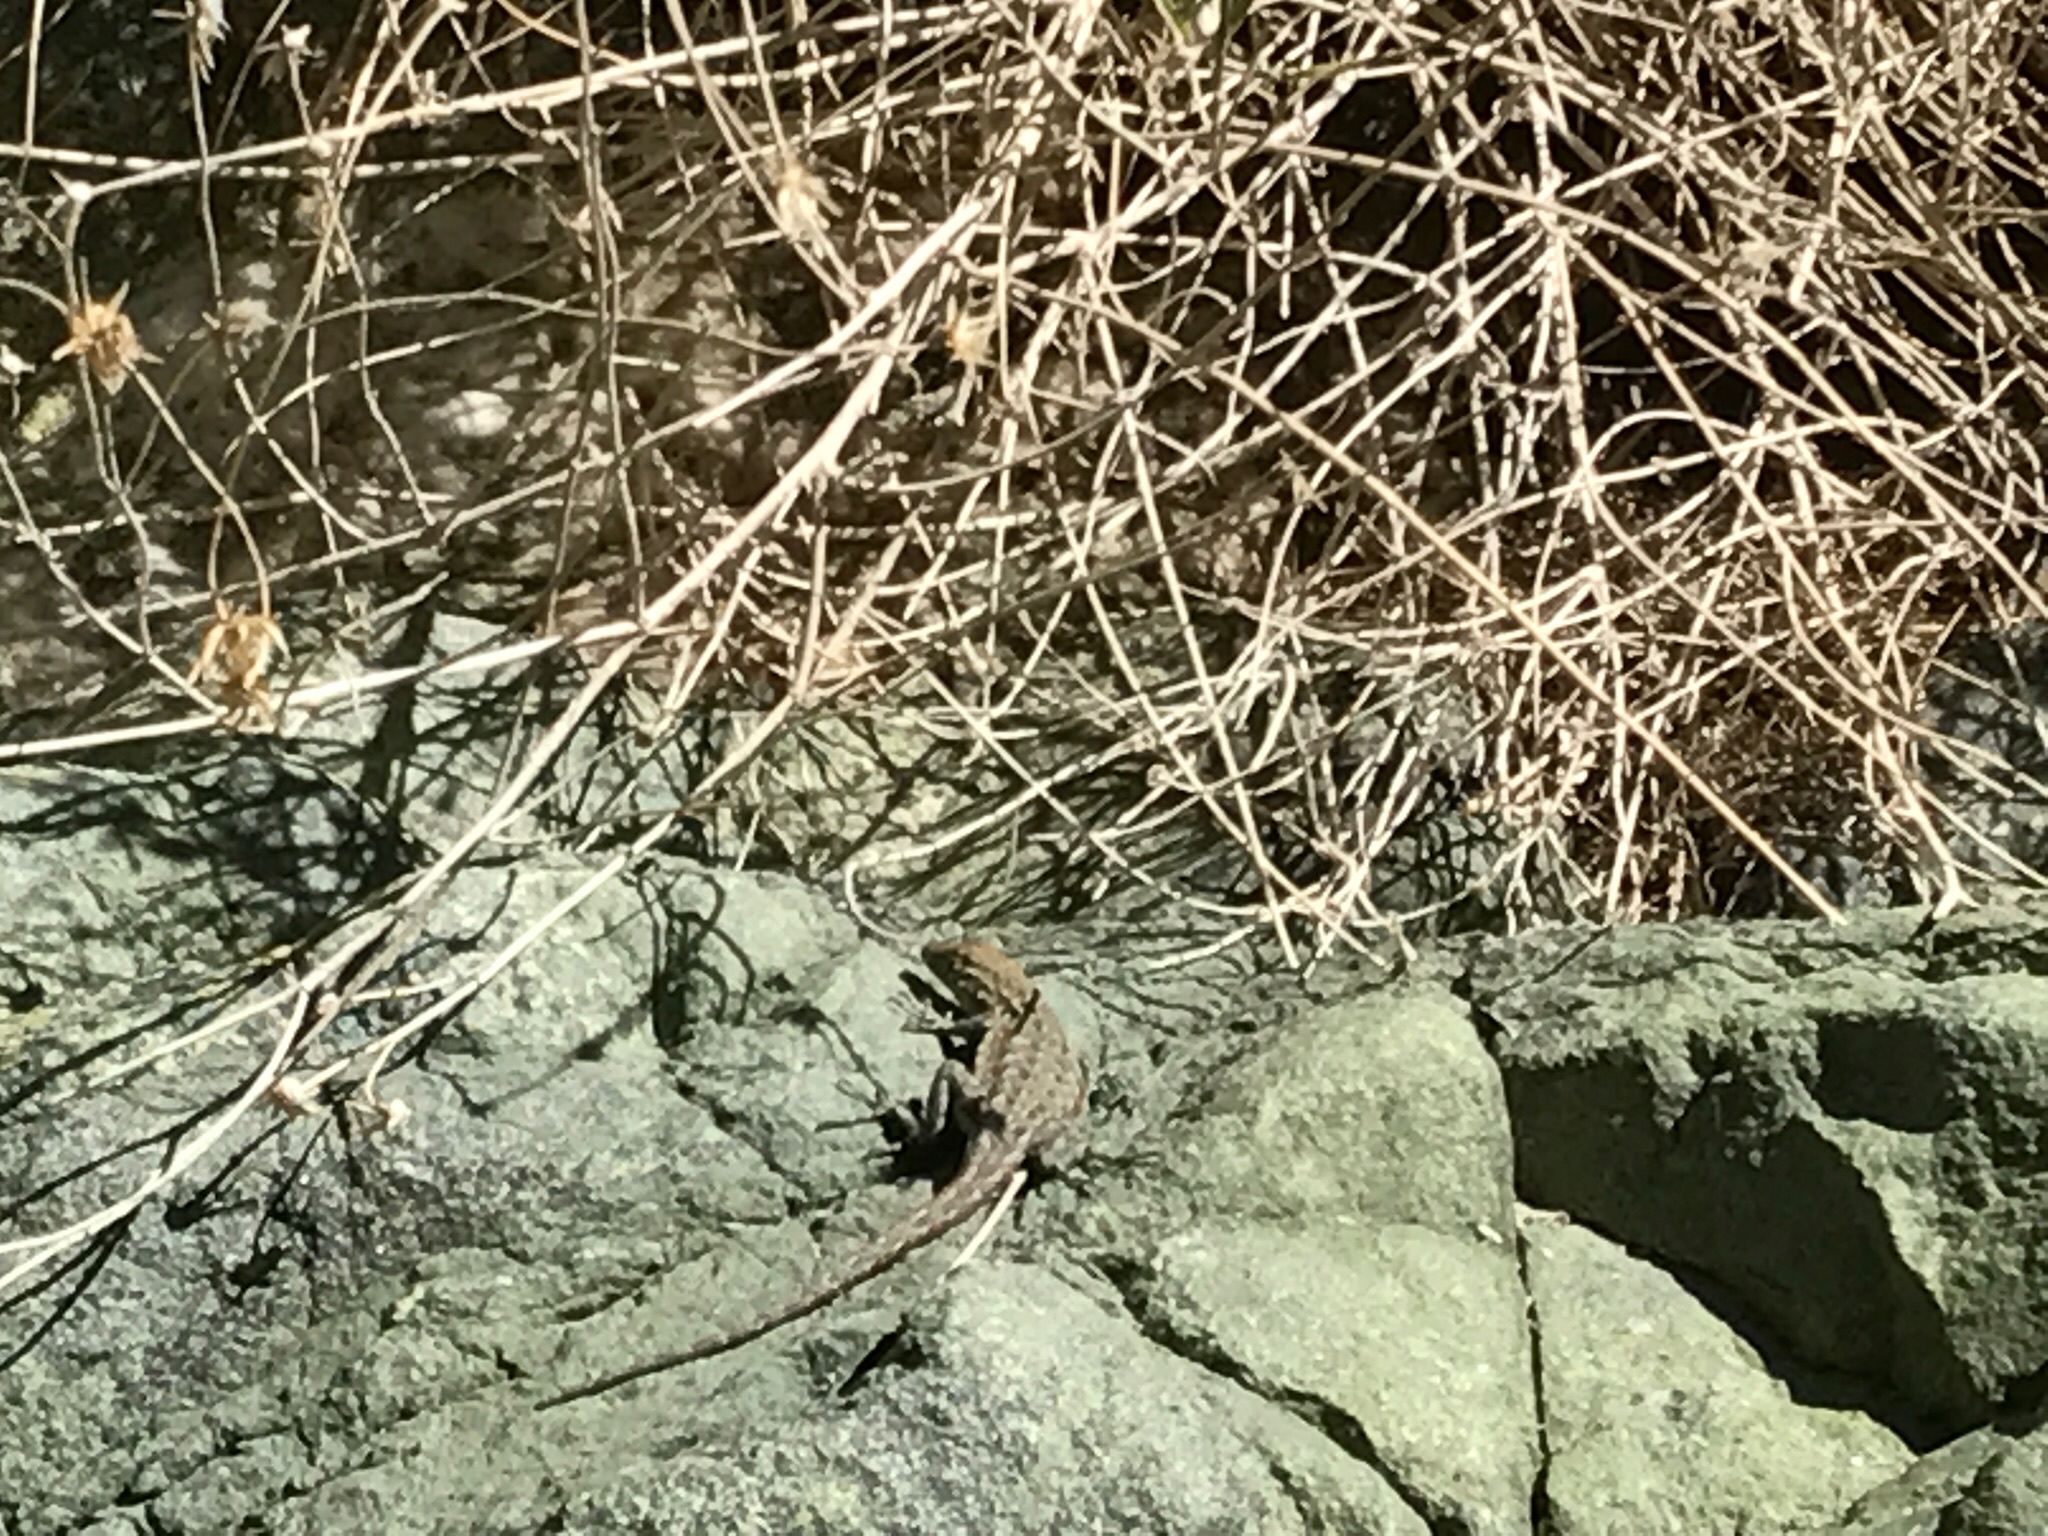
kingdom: Animalia
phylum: Chordata
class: Squamata
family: Phrynosomatidae
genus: Uta
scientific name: Uta stansburiana
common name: Side-blotched lizard
